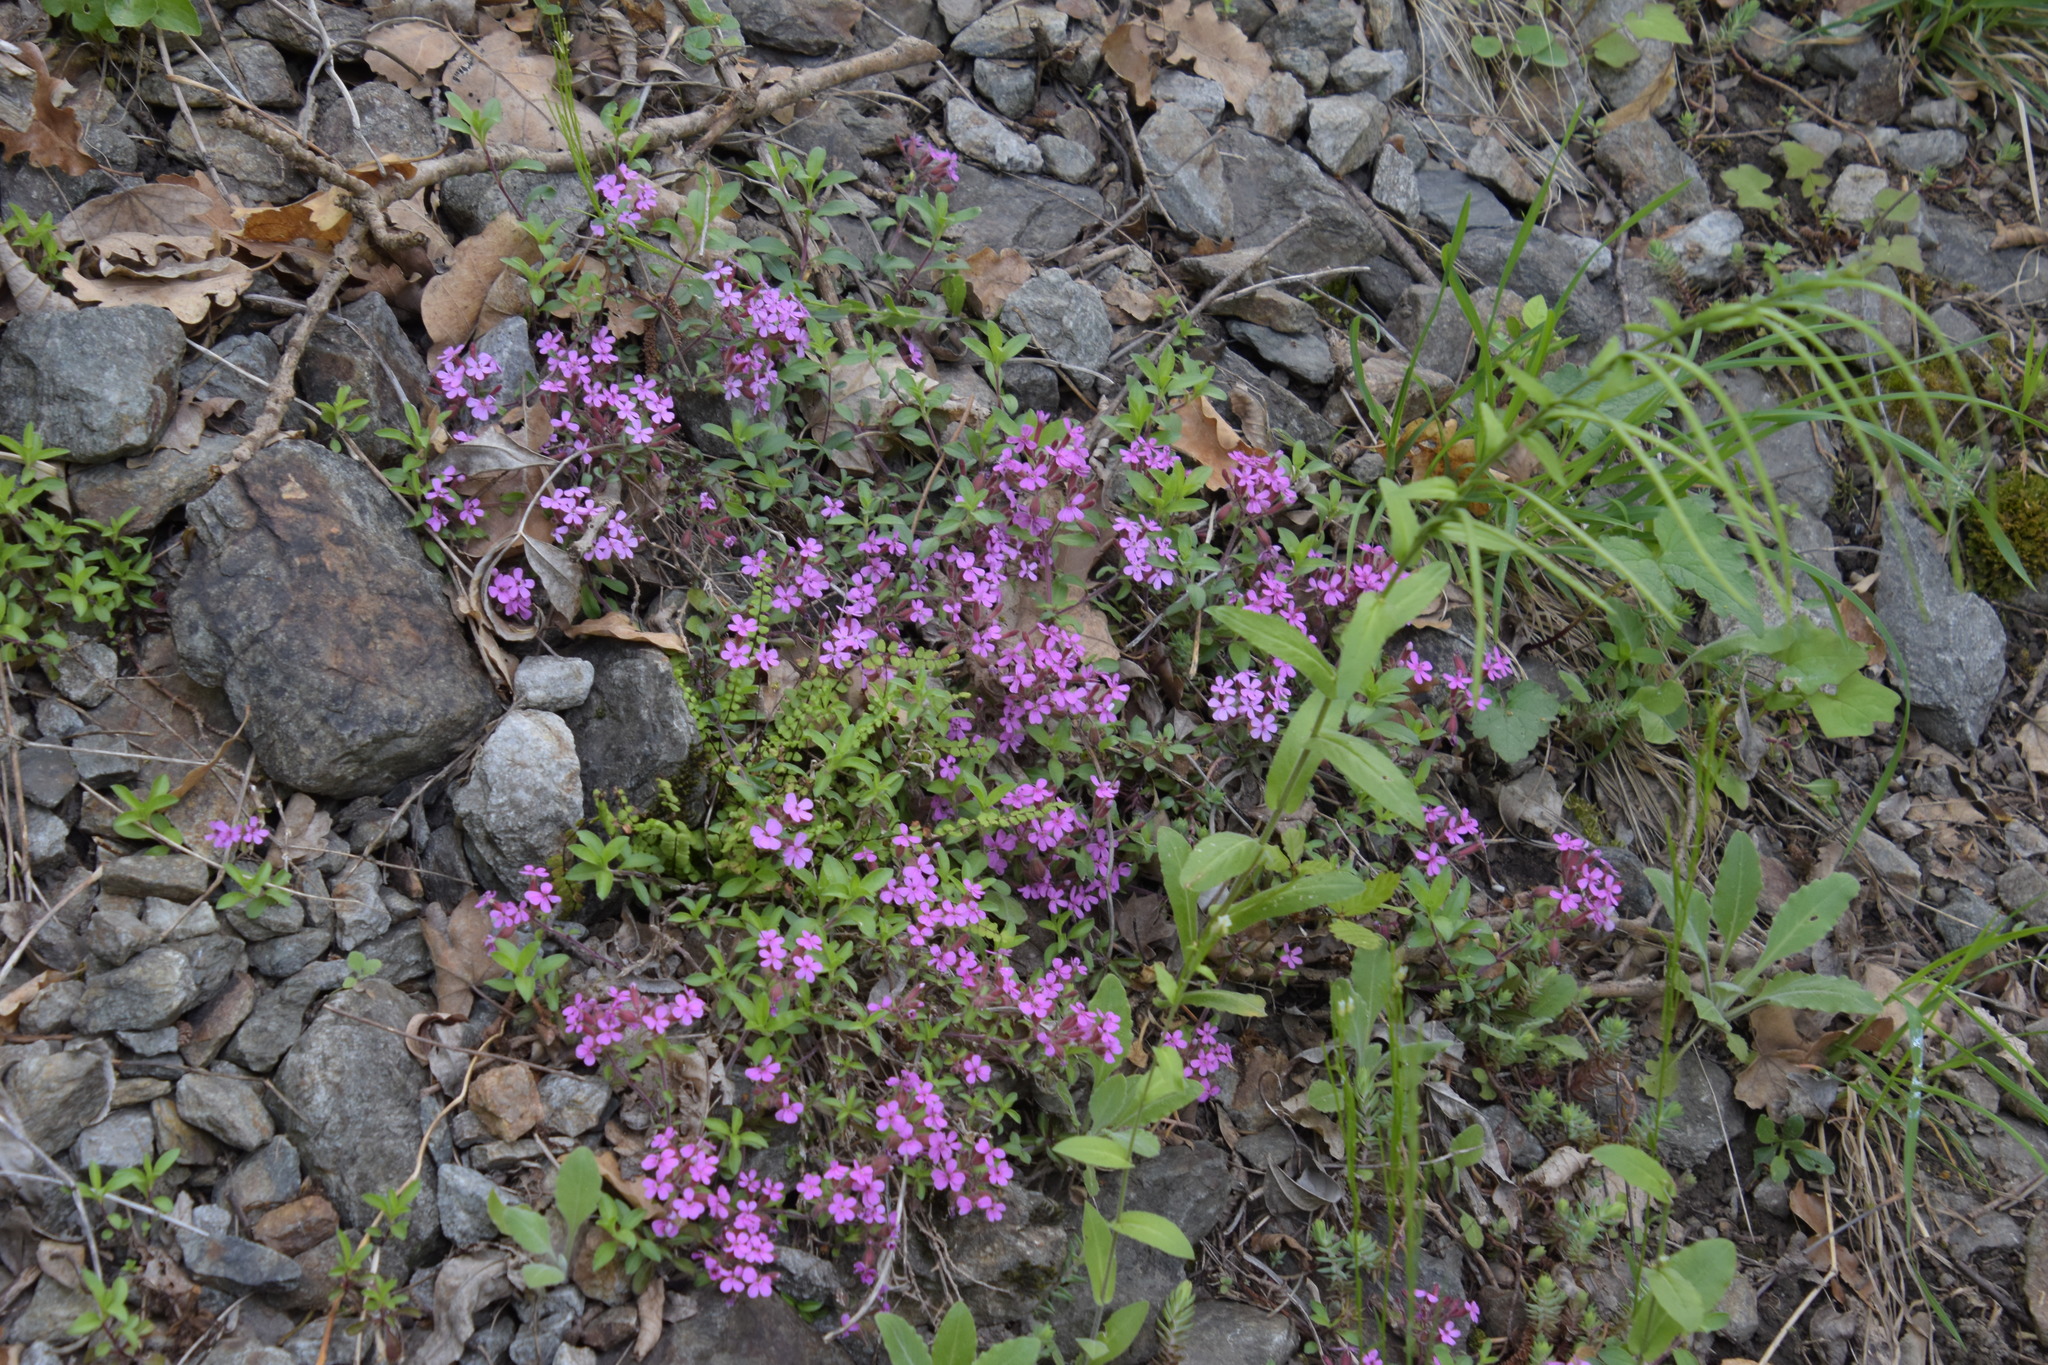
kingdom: Plantae
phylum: Tracheophyta
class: Magnoliopsida
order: Caryophyllales
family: Caryophyllaceae
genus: Saponaria
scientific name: Saponaria ocymoides
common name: Rock soapwort
